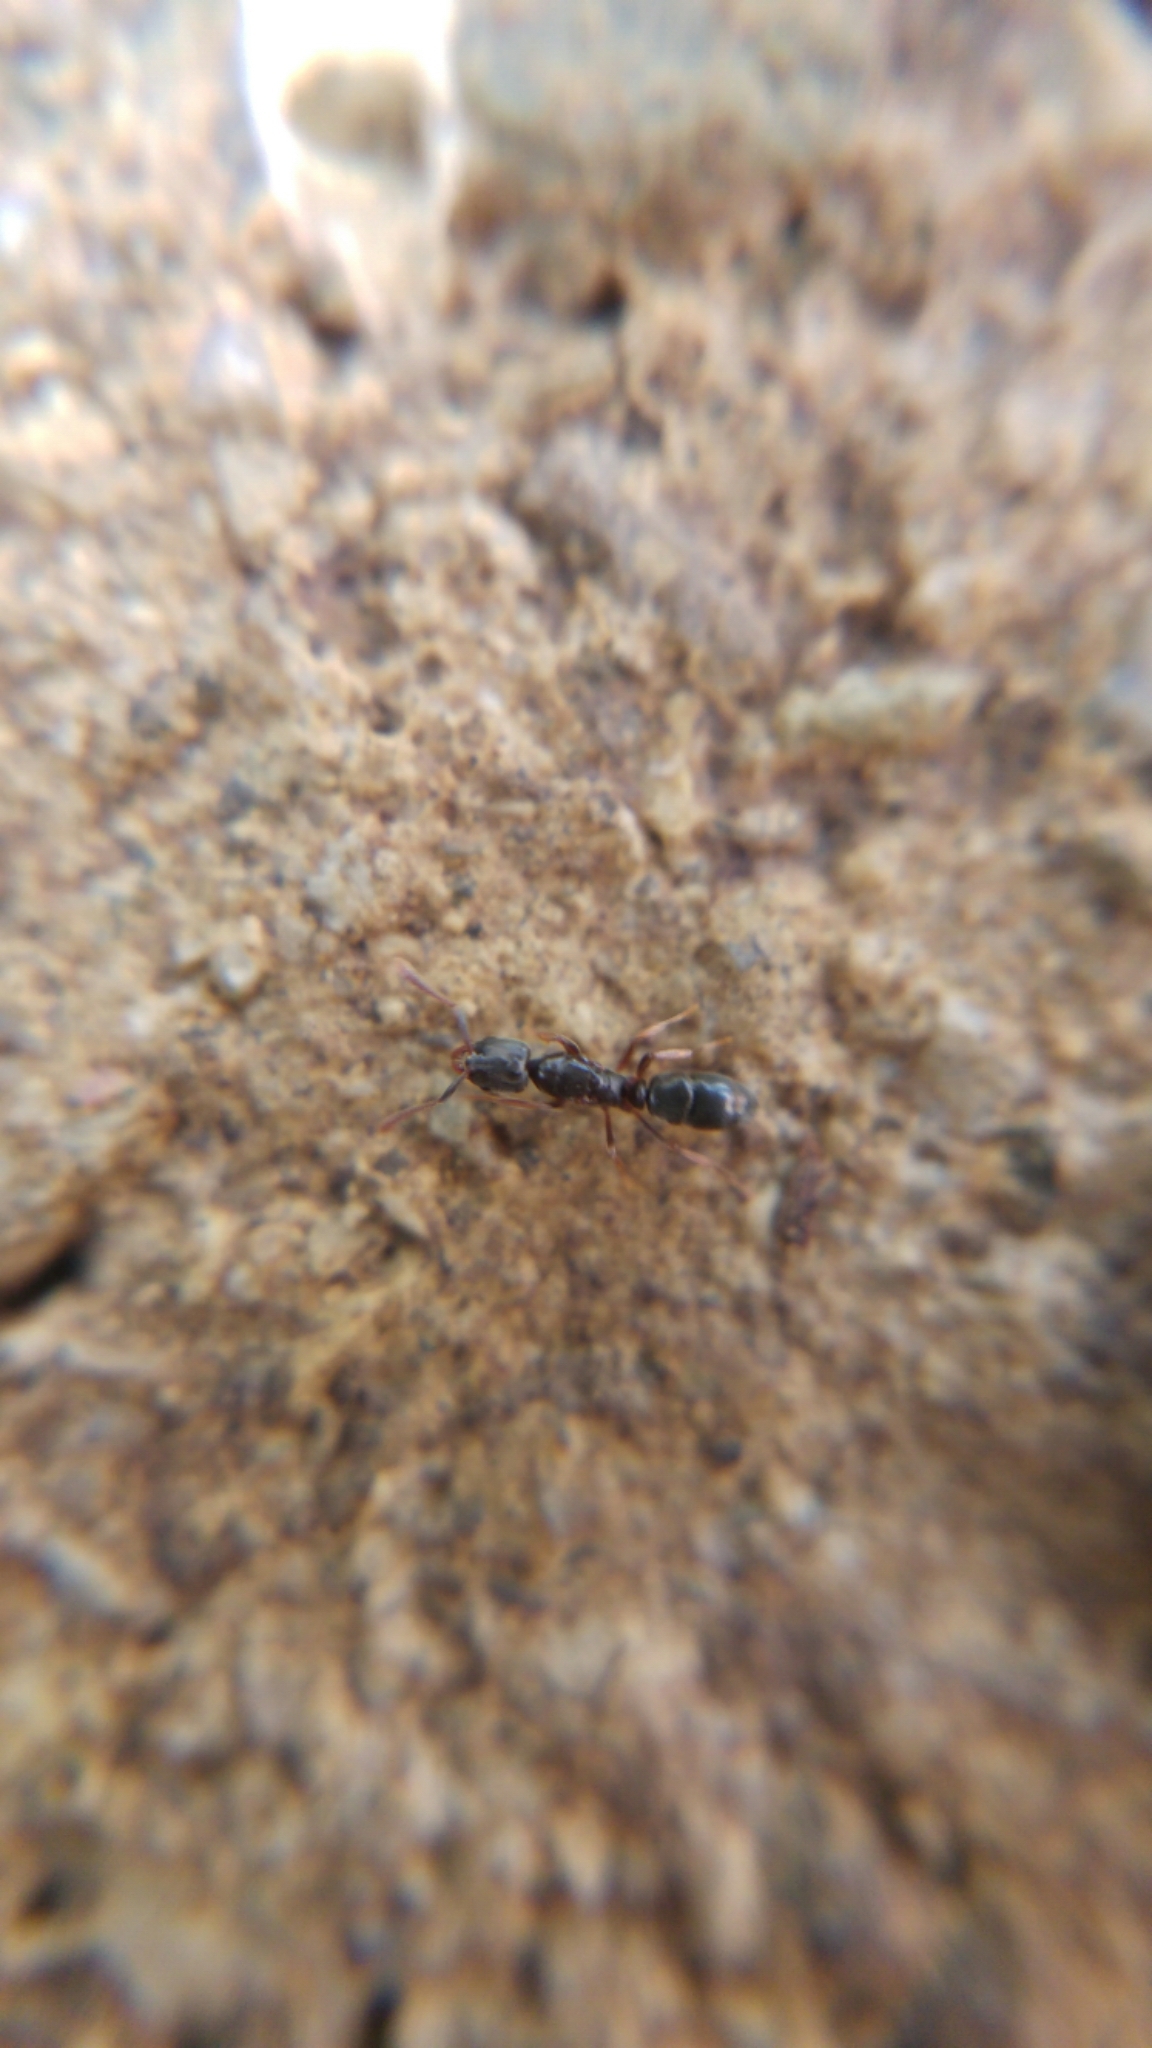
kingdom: Animalia
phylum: Arthropoda
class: Insecta
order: Hymenoptera
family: Formicidae
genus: Hypoponera
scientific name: Hypoponera eduardi
